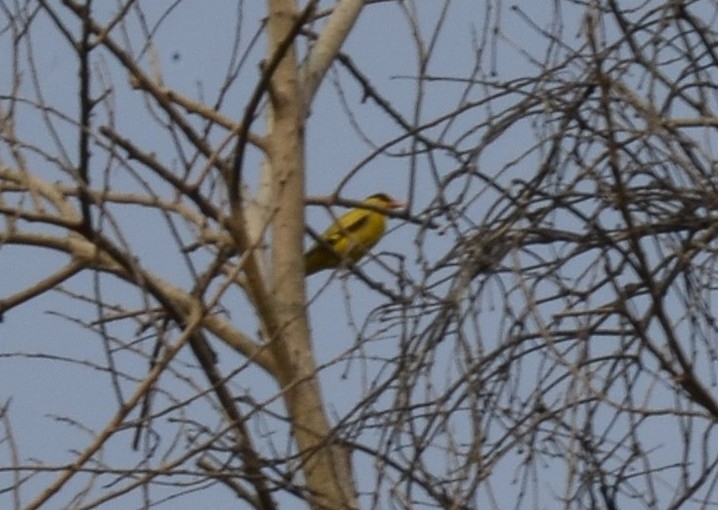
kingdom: Animalia
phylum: Chordata
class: Aves
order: Passeriformes
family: Oriolidae
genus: Oriolus
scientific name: Oriolus chinensis
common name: Black-naped oriole
